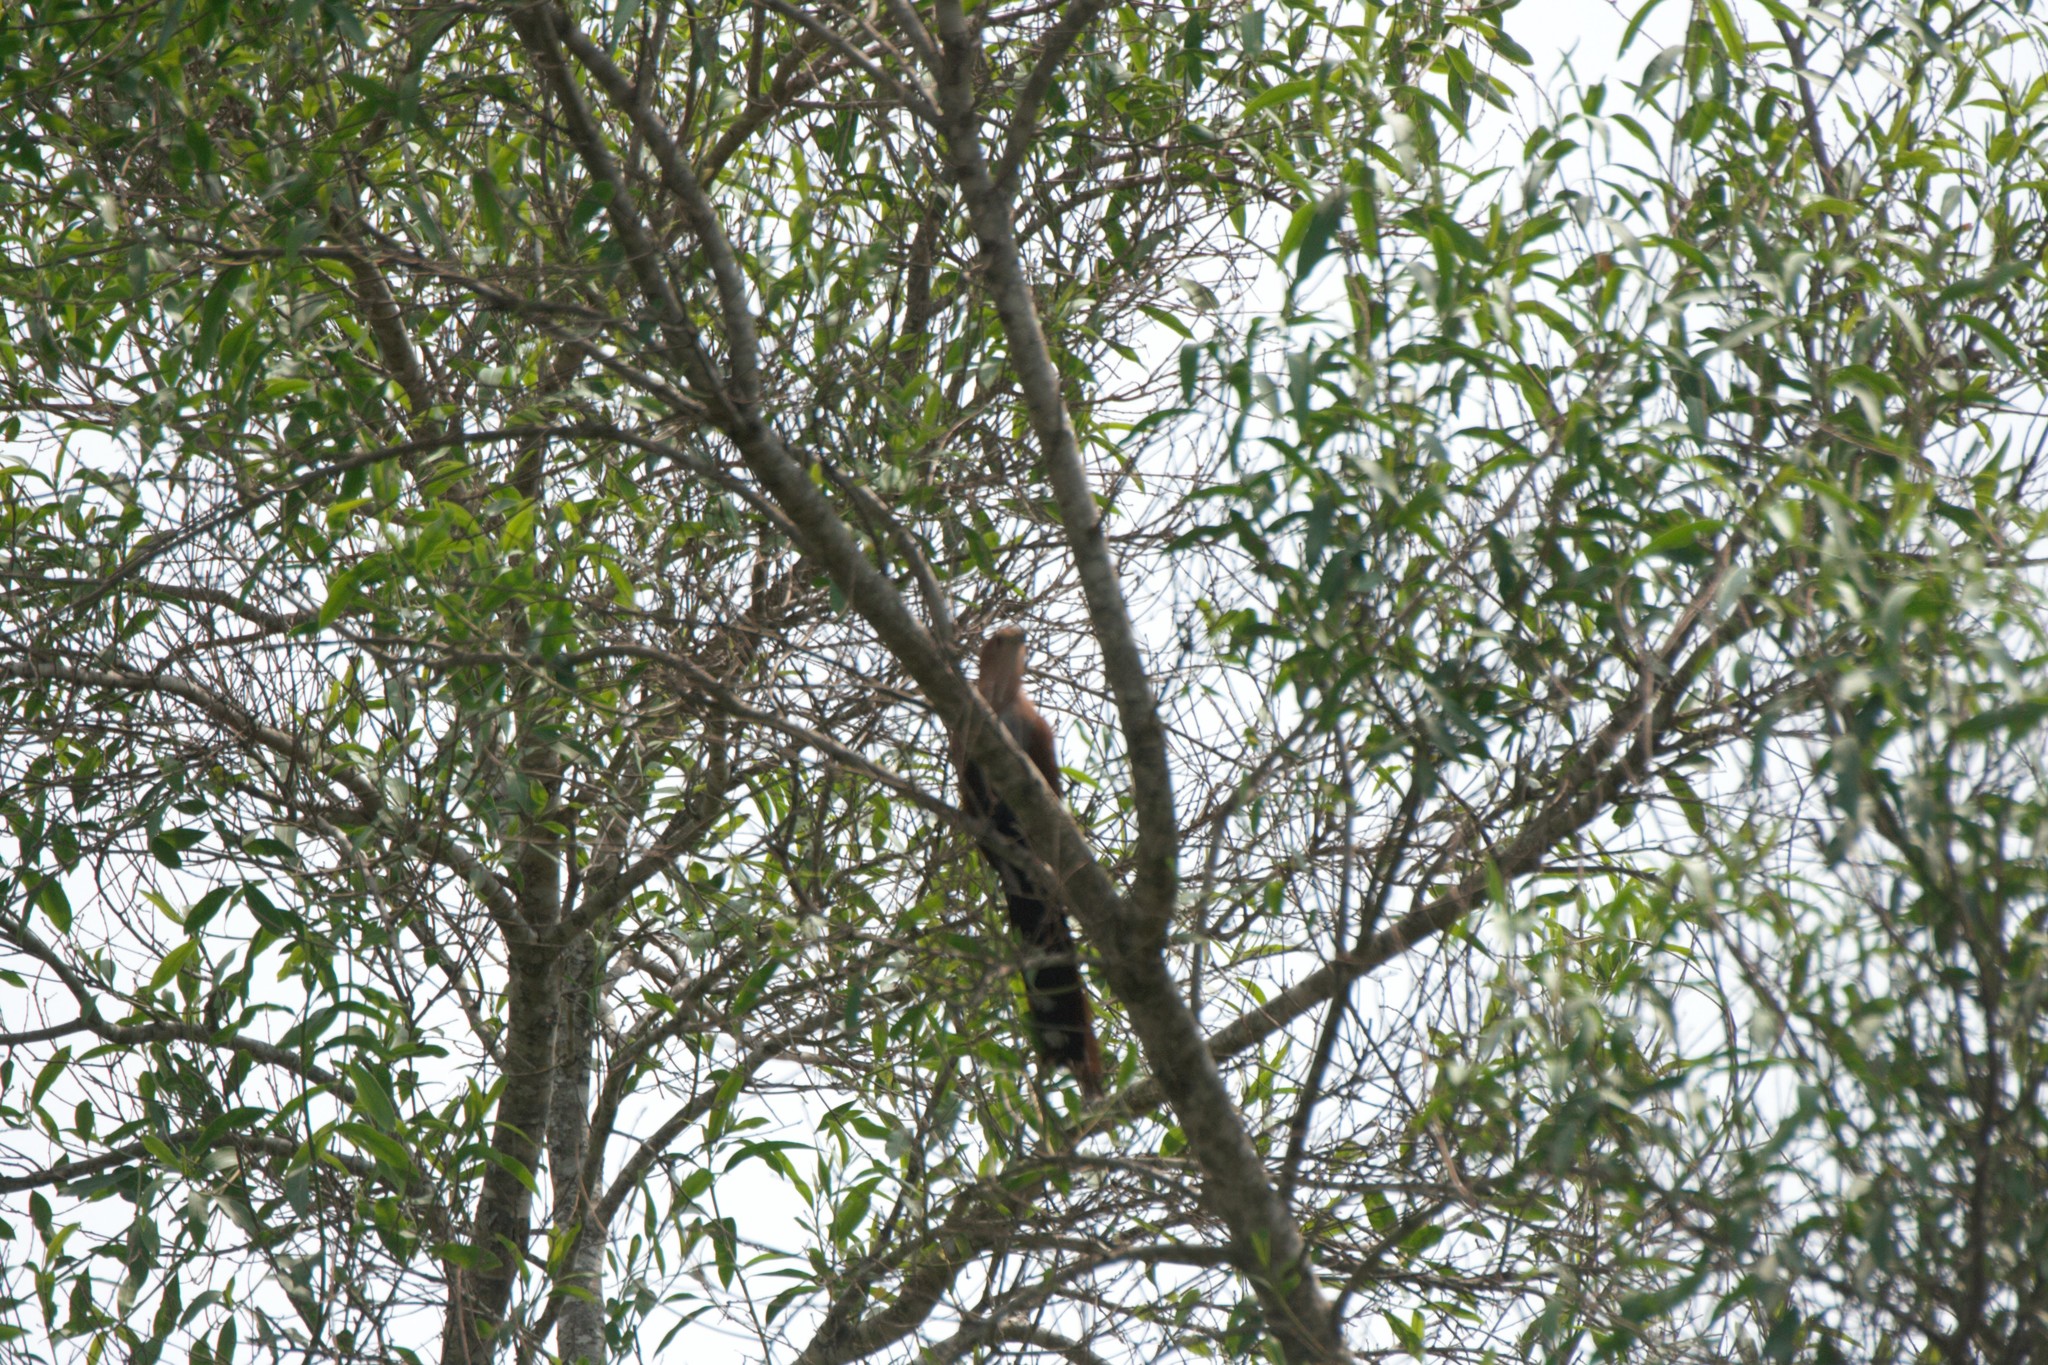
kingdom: Animalia
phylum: Chordata
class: Aves
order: Cuculiformes
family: Cuculidae
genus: Piaya
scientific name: Piaya cayana
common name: Squirrel cuckoo
